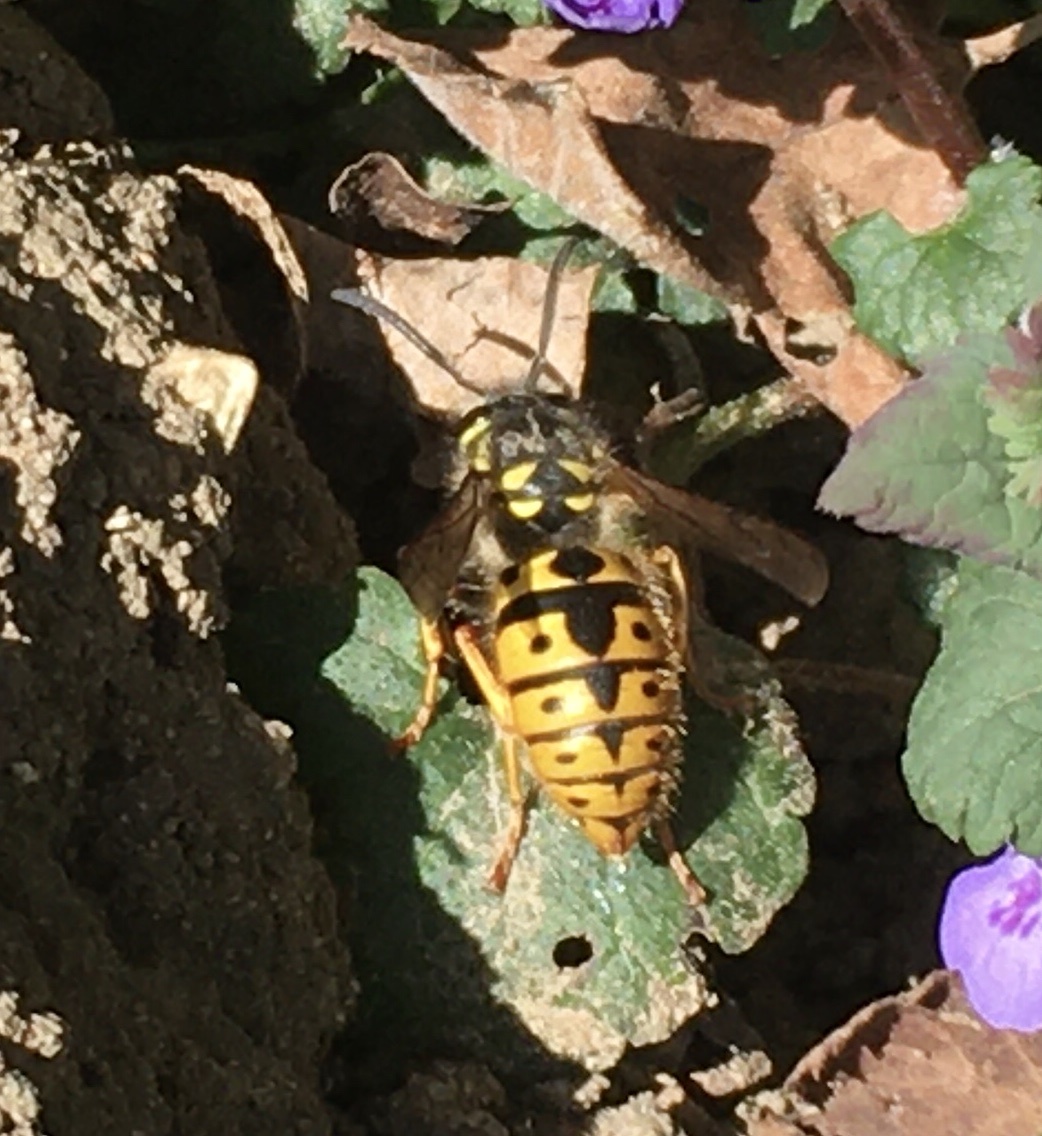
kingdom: Animalia
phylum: Arthropoda
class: Insecta
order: Hymenoptera
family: Vespidae
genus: Vespula
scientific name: Vespula germanica
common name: German wasp
